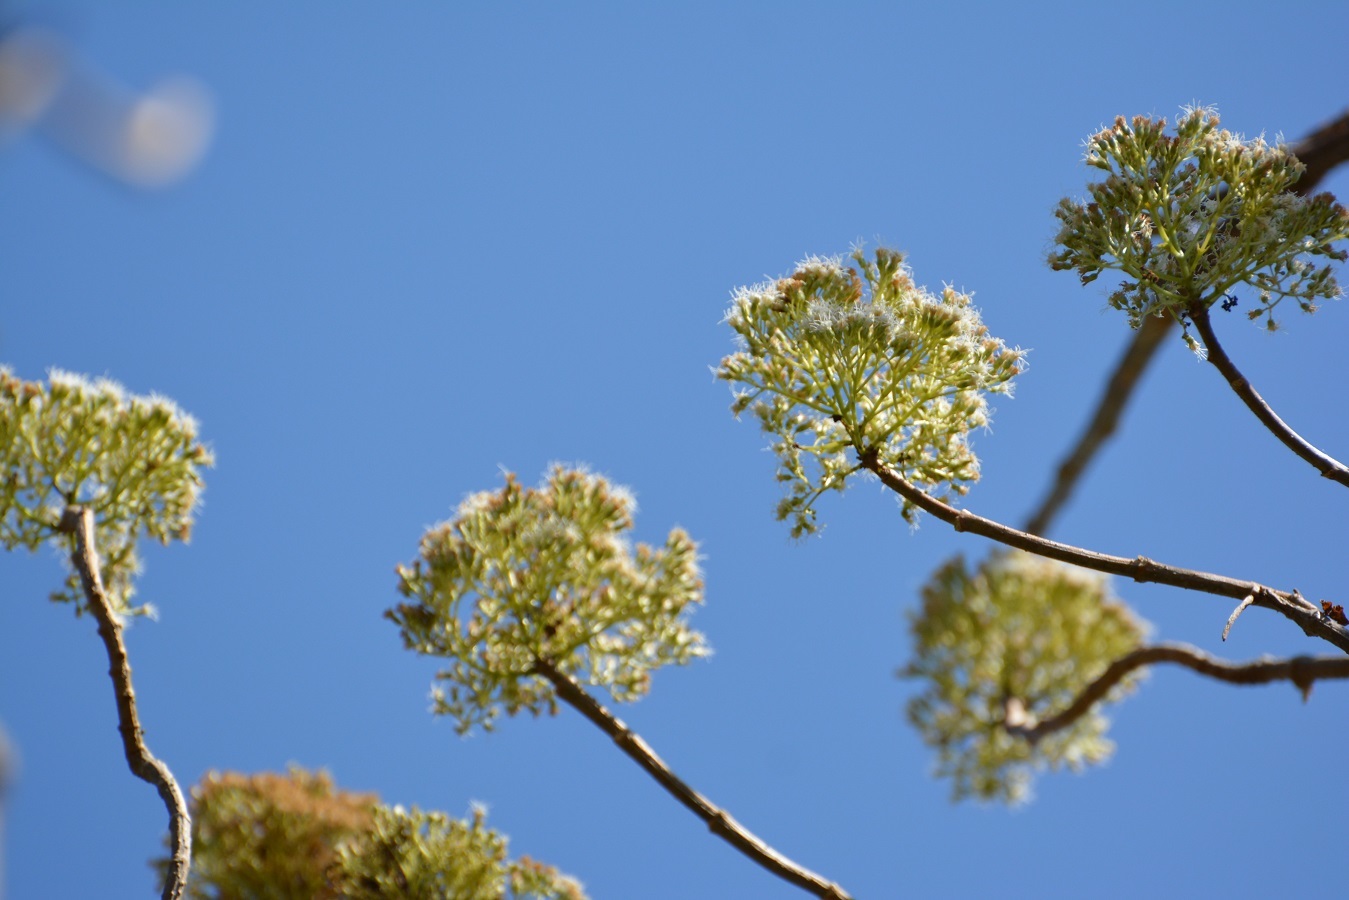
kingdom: Plantae
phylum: Tracheophyta
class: Magnoliopsida
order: Asterales
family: Asteraceae
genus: Ageratina
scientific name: Ageratina crassiramea
